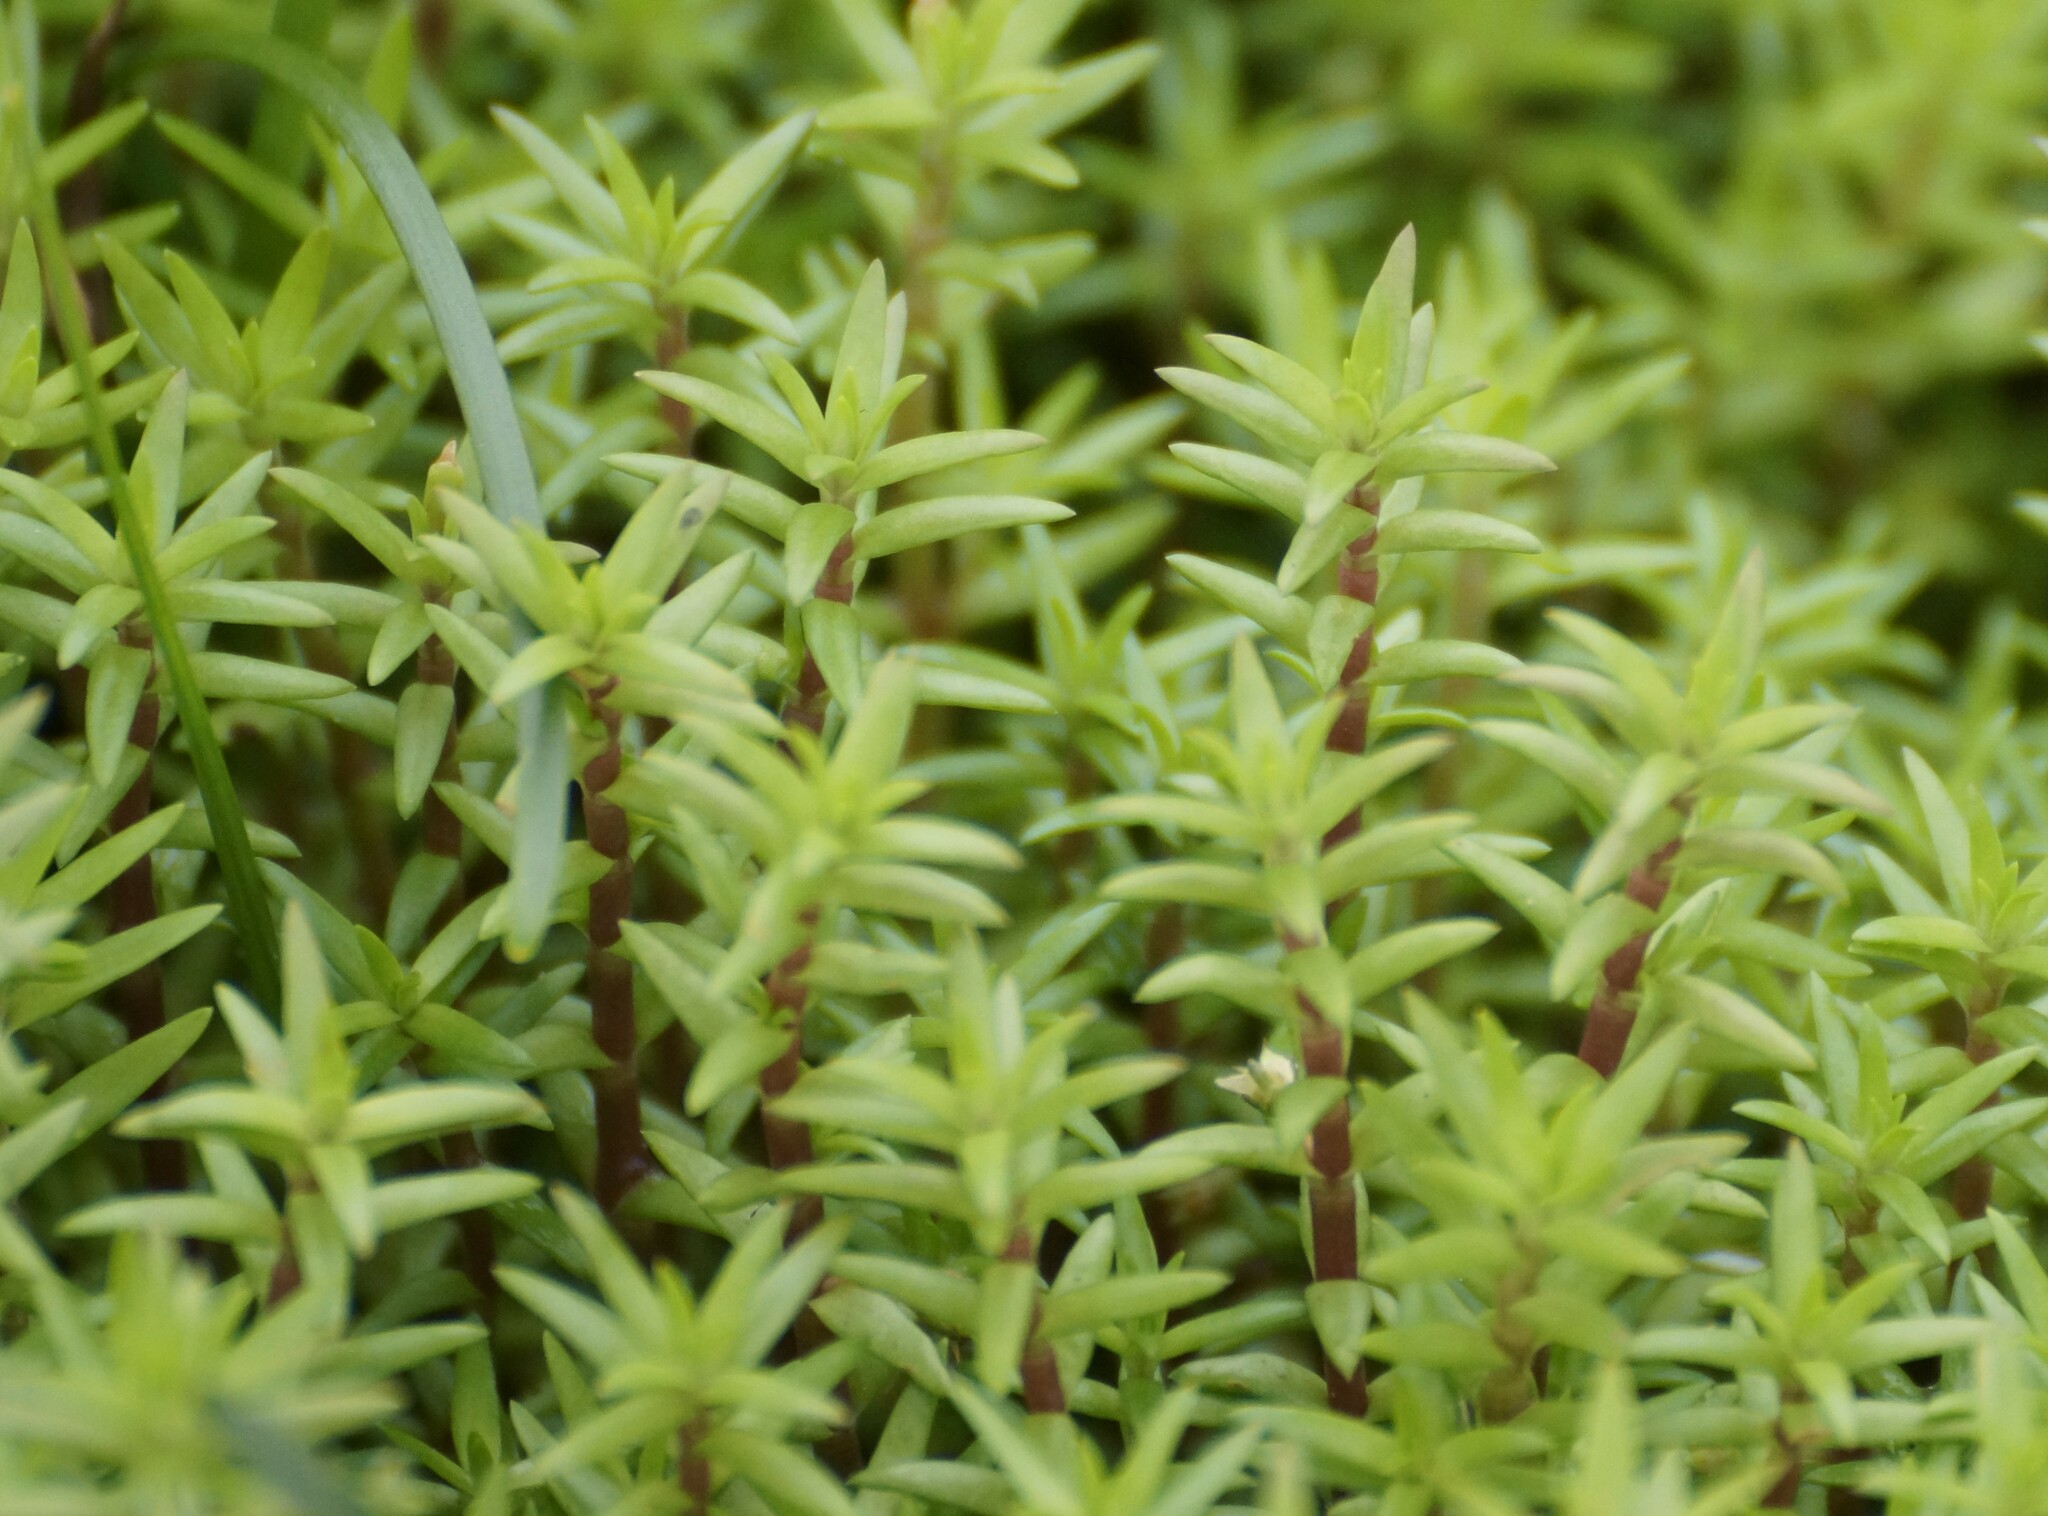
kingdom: Plantae
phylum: Tracheophyta
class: Magnoliopsida
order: Saxifragales
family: Crassulaceae
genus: Crassula
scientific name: Crassula helmsii
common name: New zealand pigmyweed
